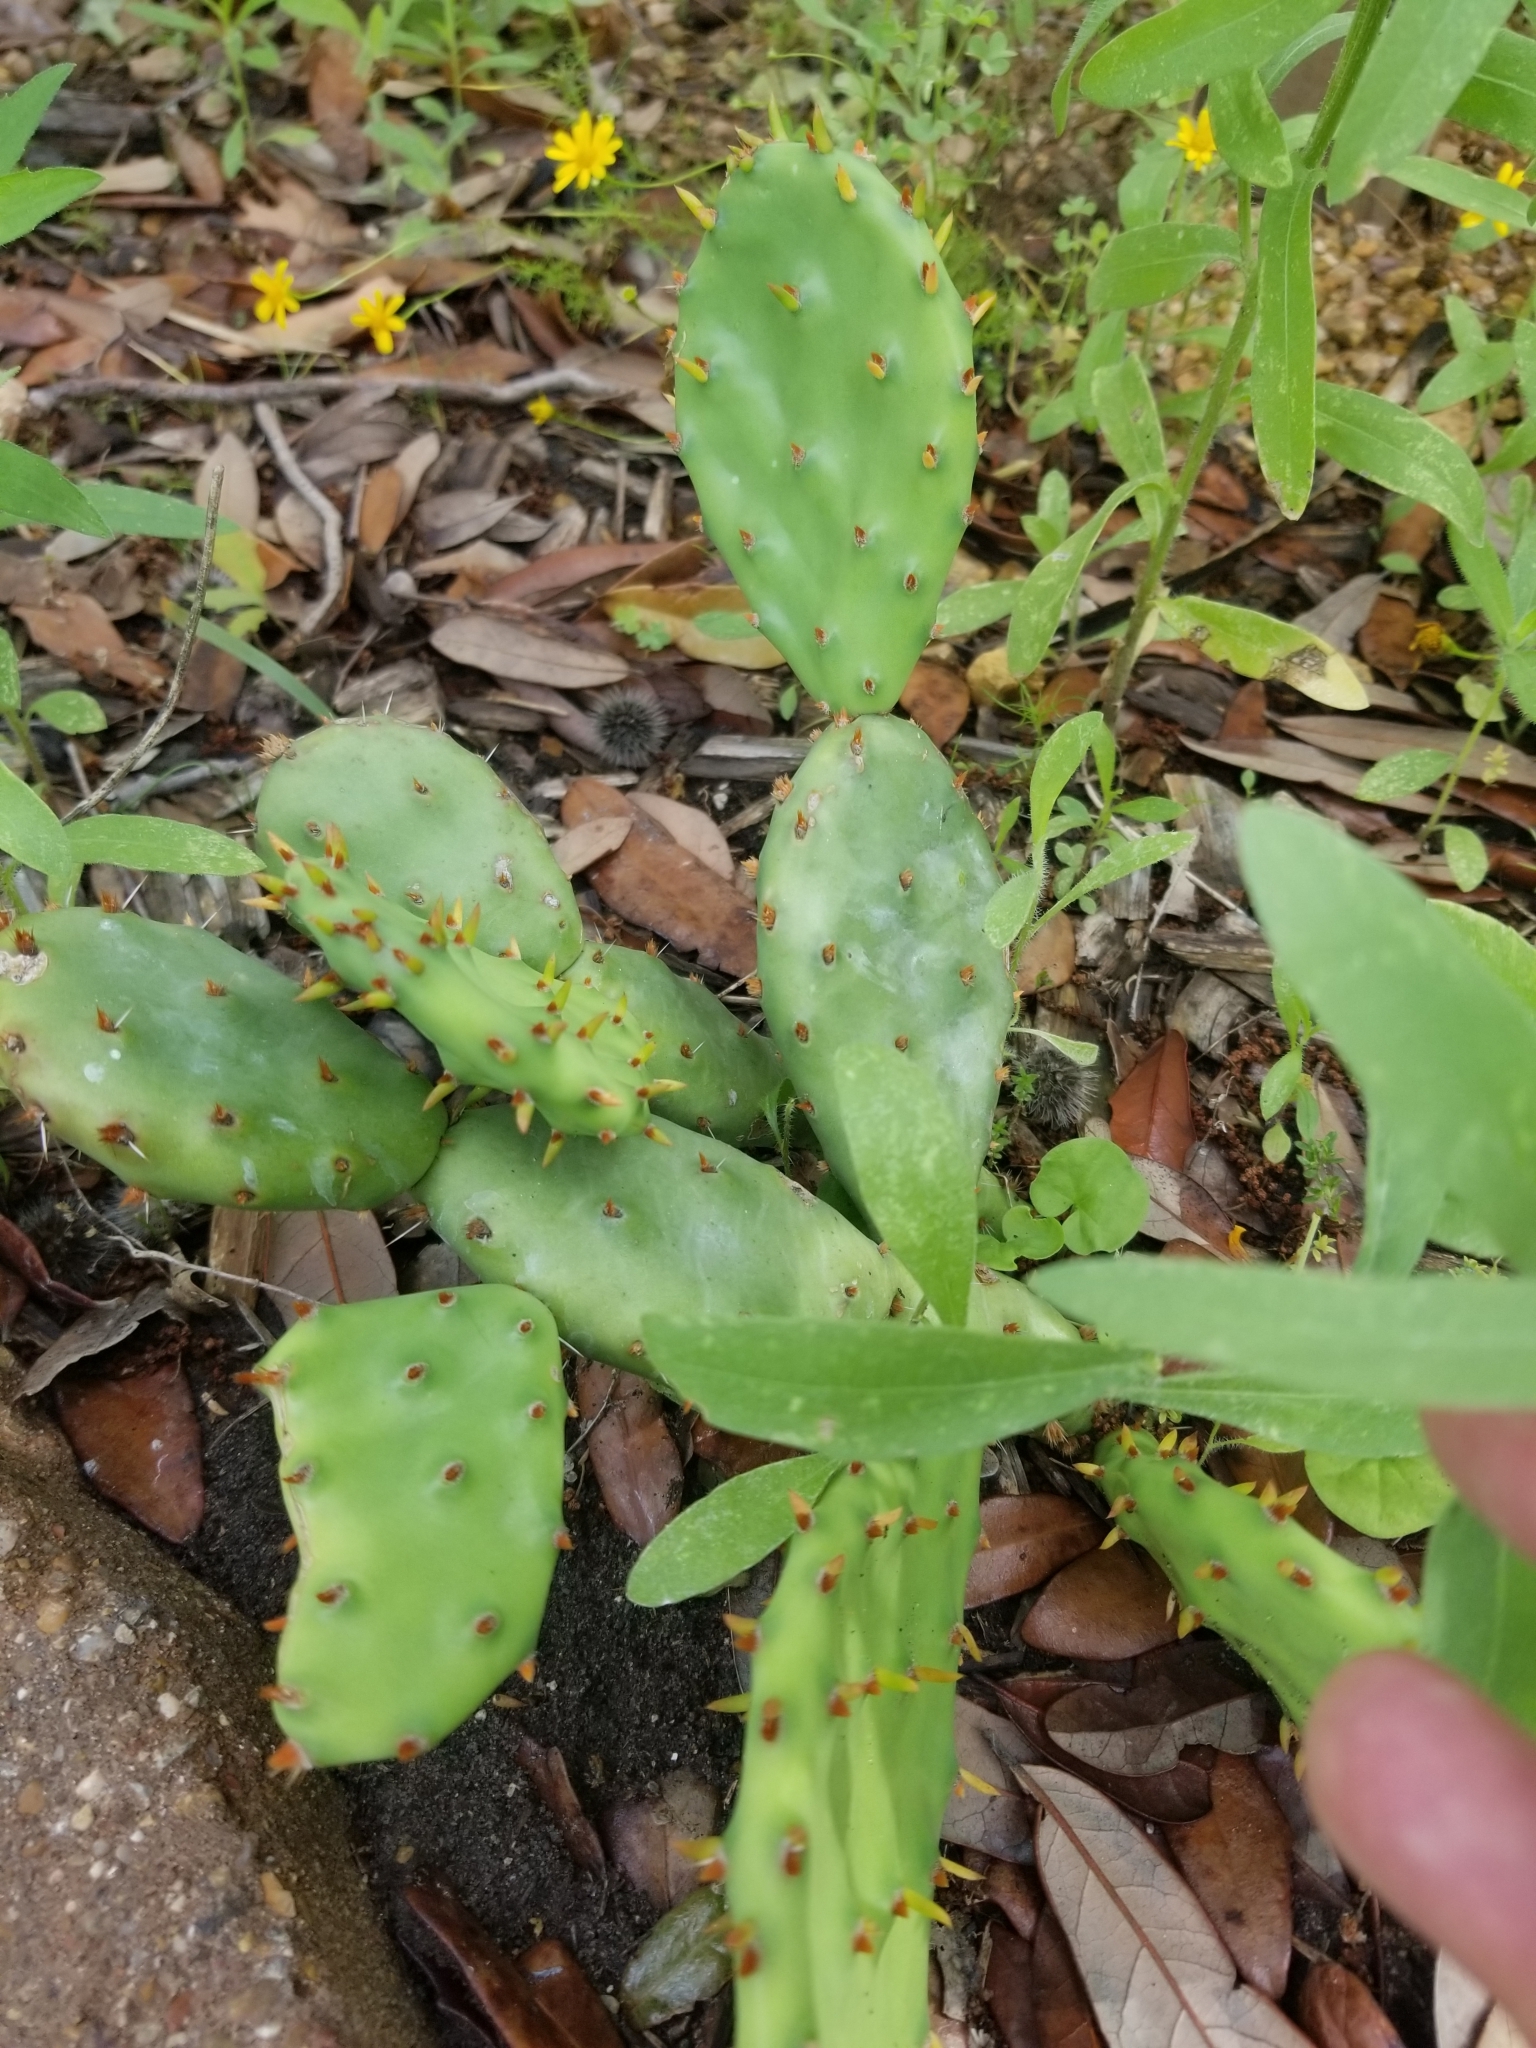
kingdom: Plantae
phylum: Tracheophyta
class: Magnoliopsida
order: Caryophyllales
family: Cactaceae
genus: Opuntia
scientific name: Opuntia macrorhiza
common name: Grassland pricklypear
